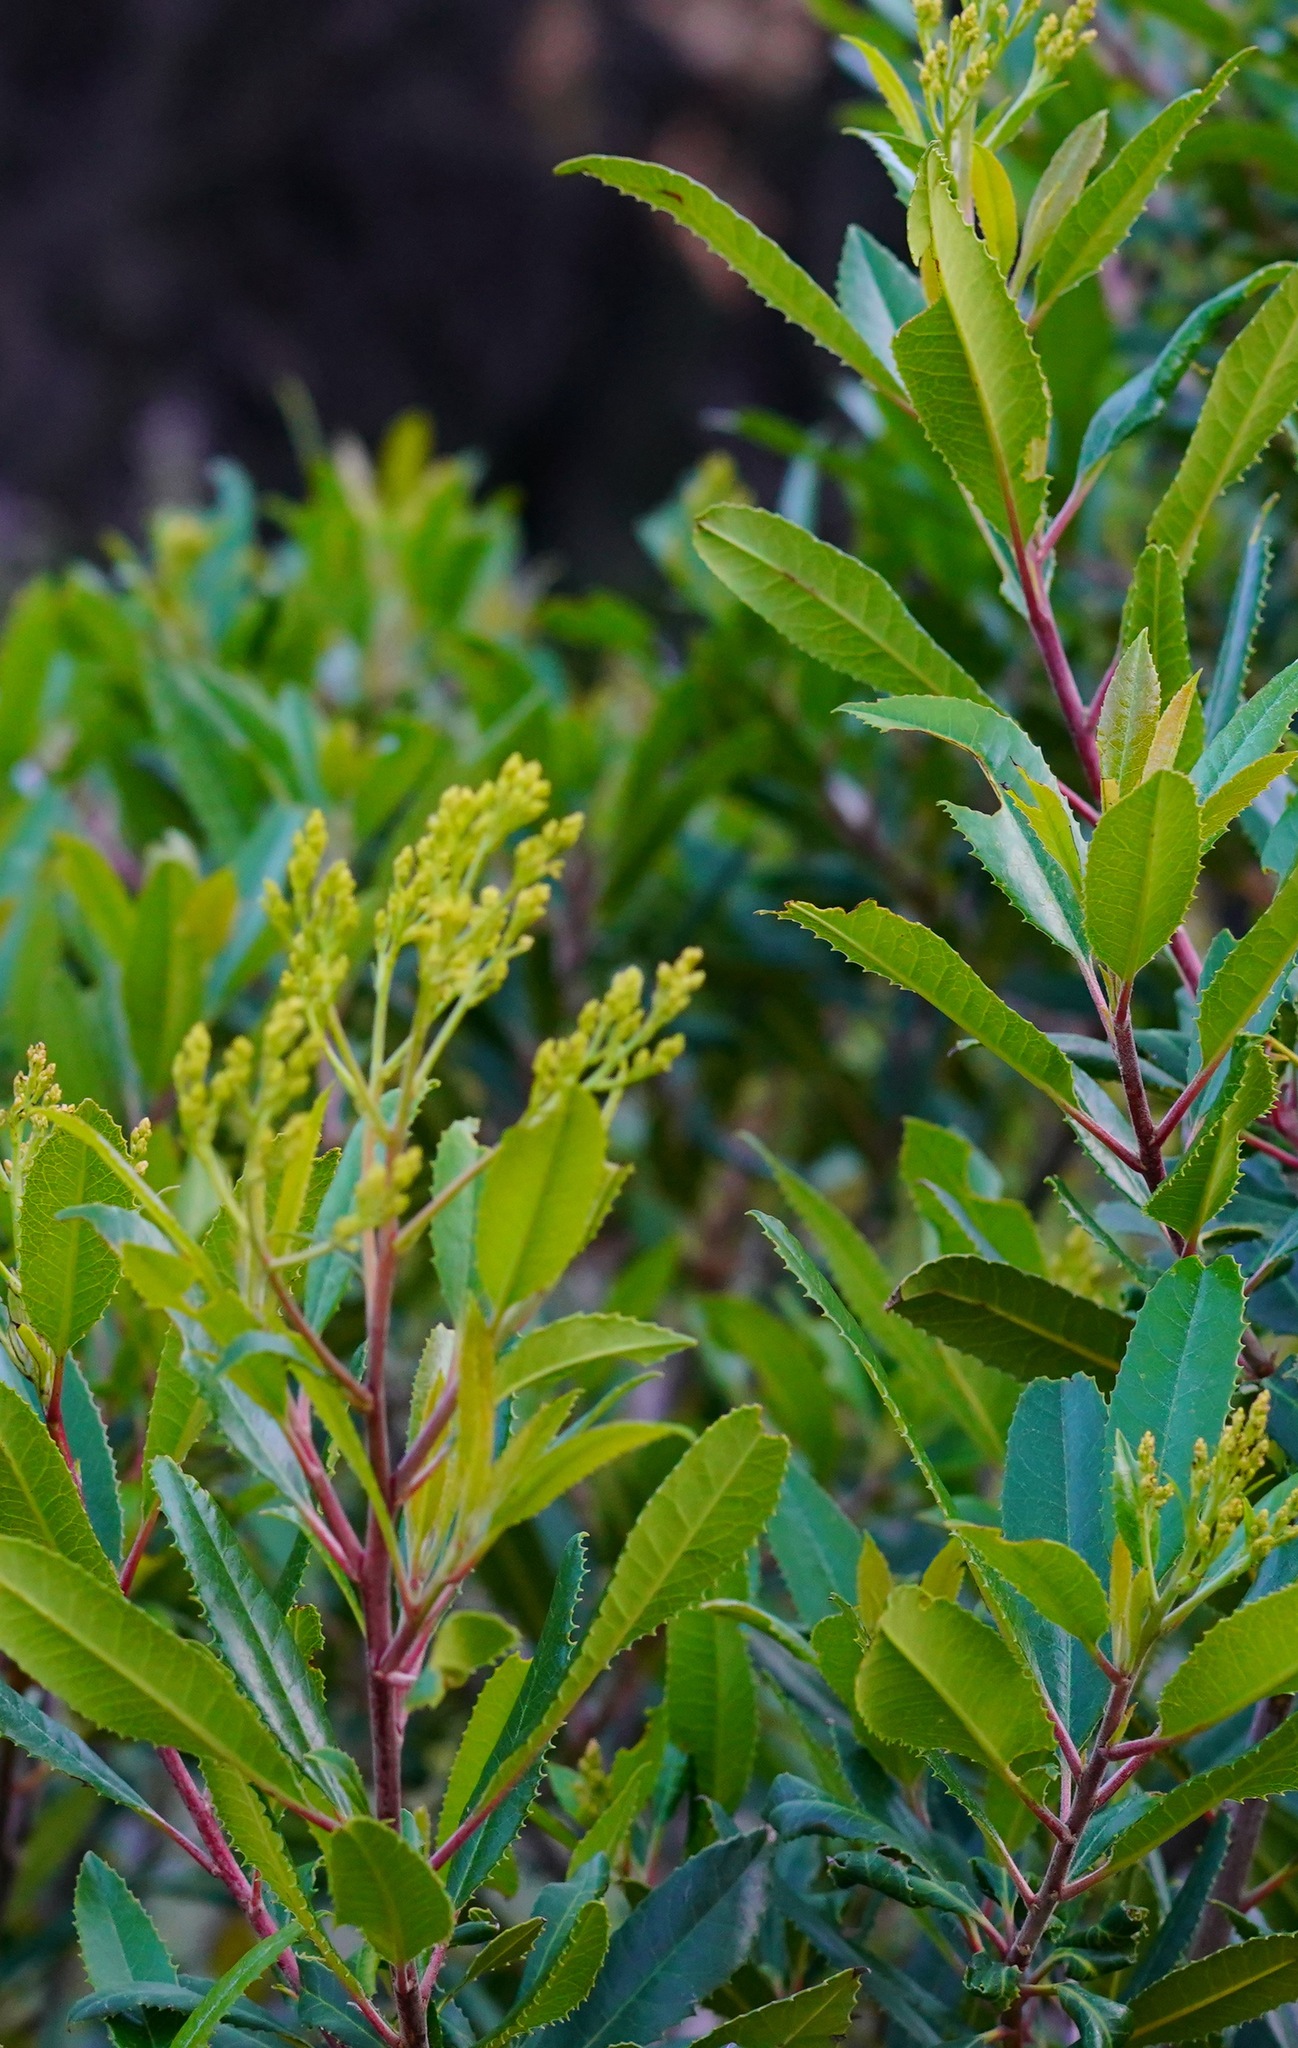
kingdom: Plantae
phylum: Tracheophyta
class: Magnoliopsida
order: Rosales
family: Rosaceae
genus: Heteromeles
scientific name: Heteromeles arbutifolia
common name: California-holly
